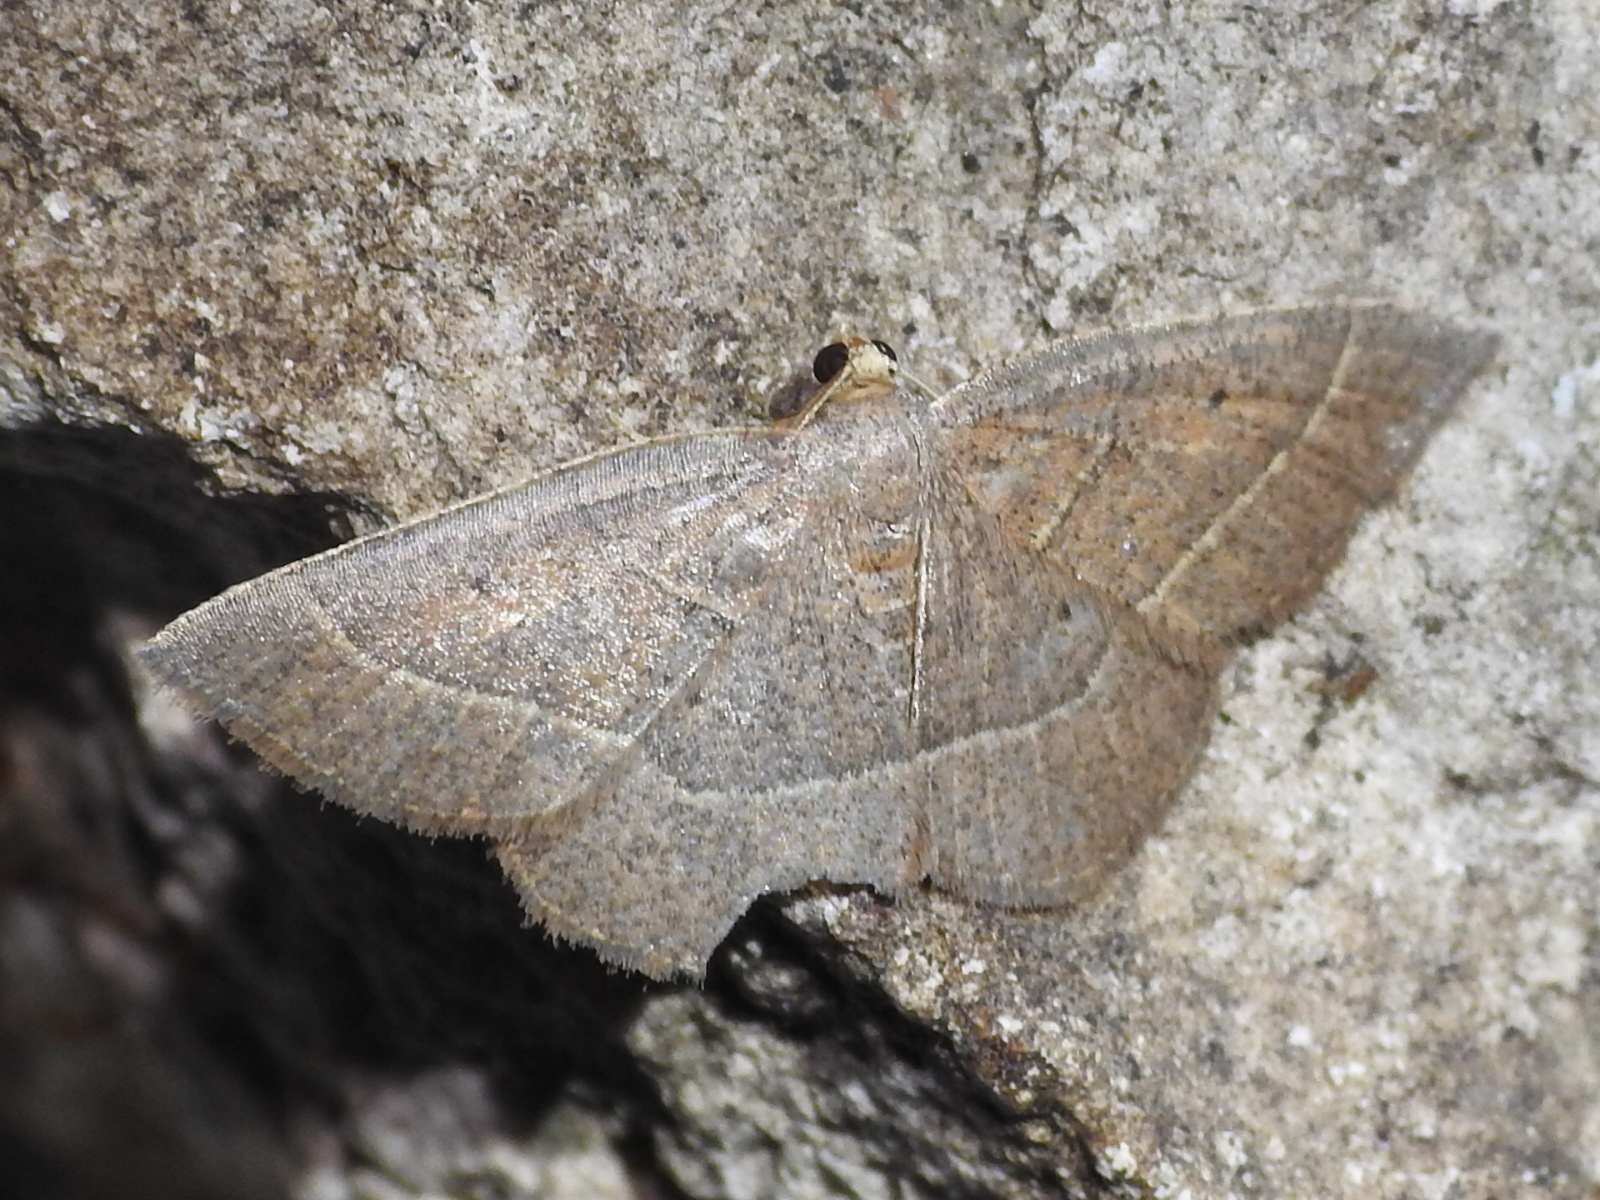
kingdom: Animalia
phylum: Arthropoda
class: Insecta
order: Lepidoptera
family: Geometridae
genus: Episemasia
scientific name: Episemasia cervinaria
